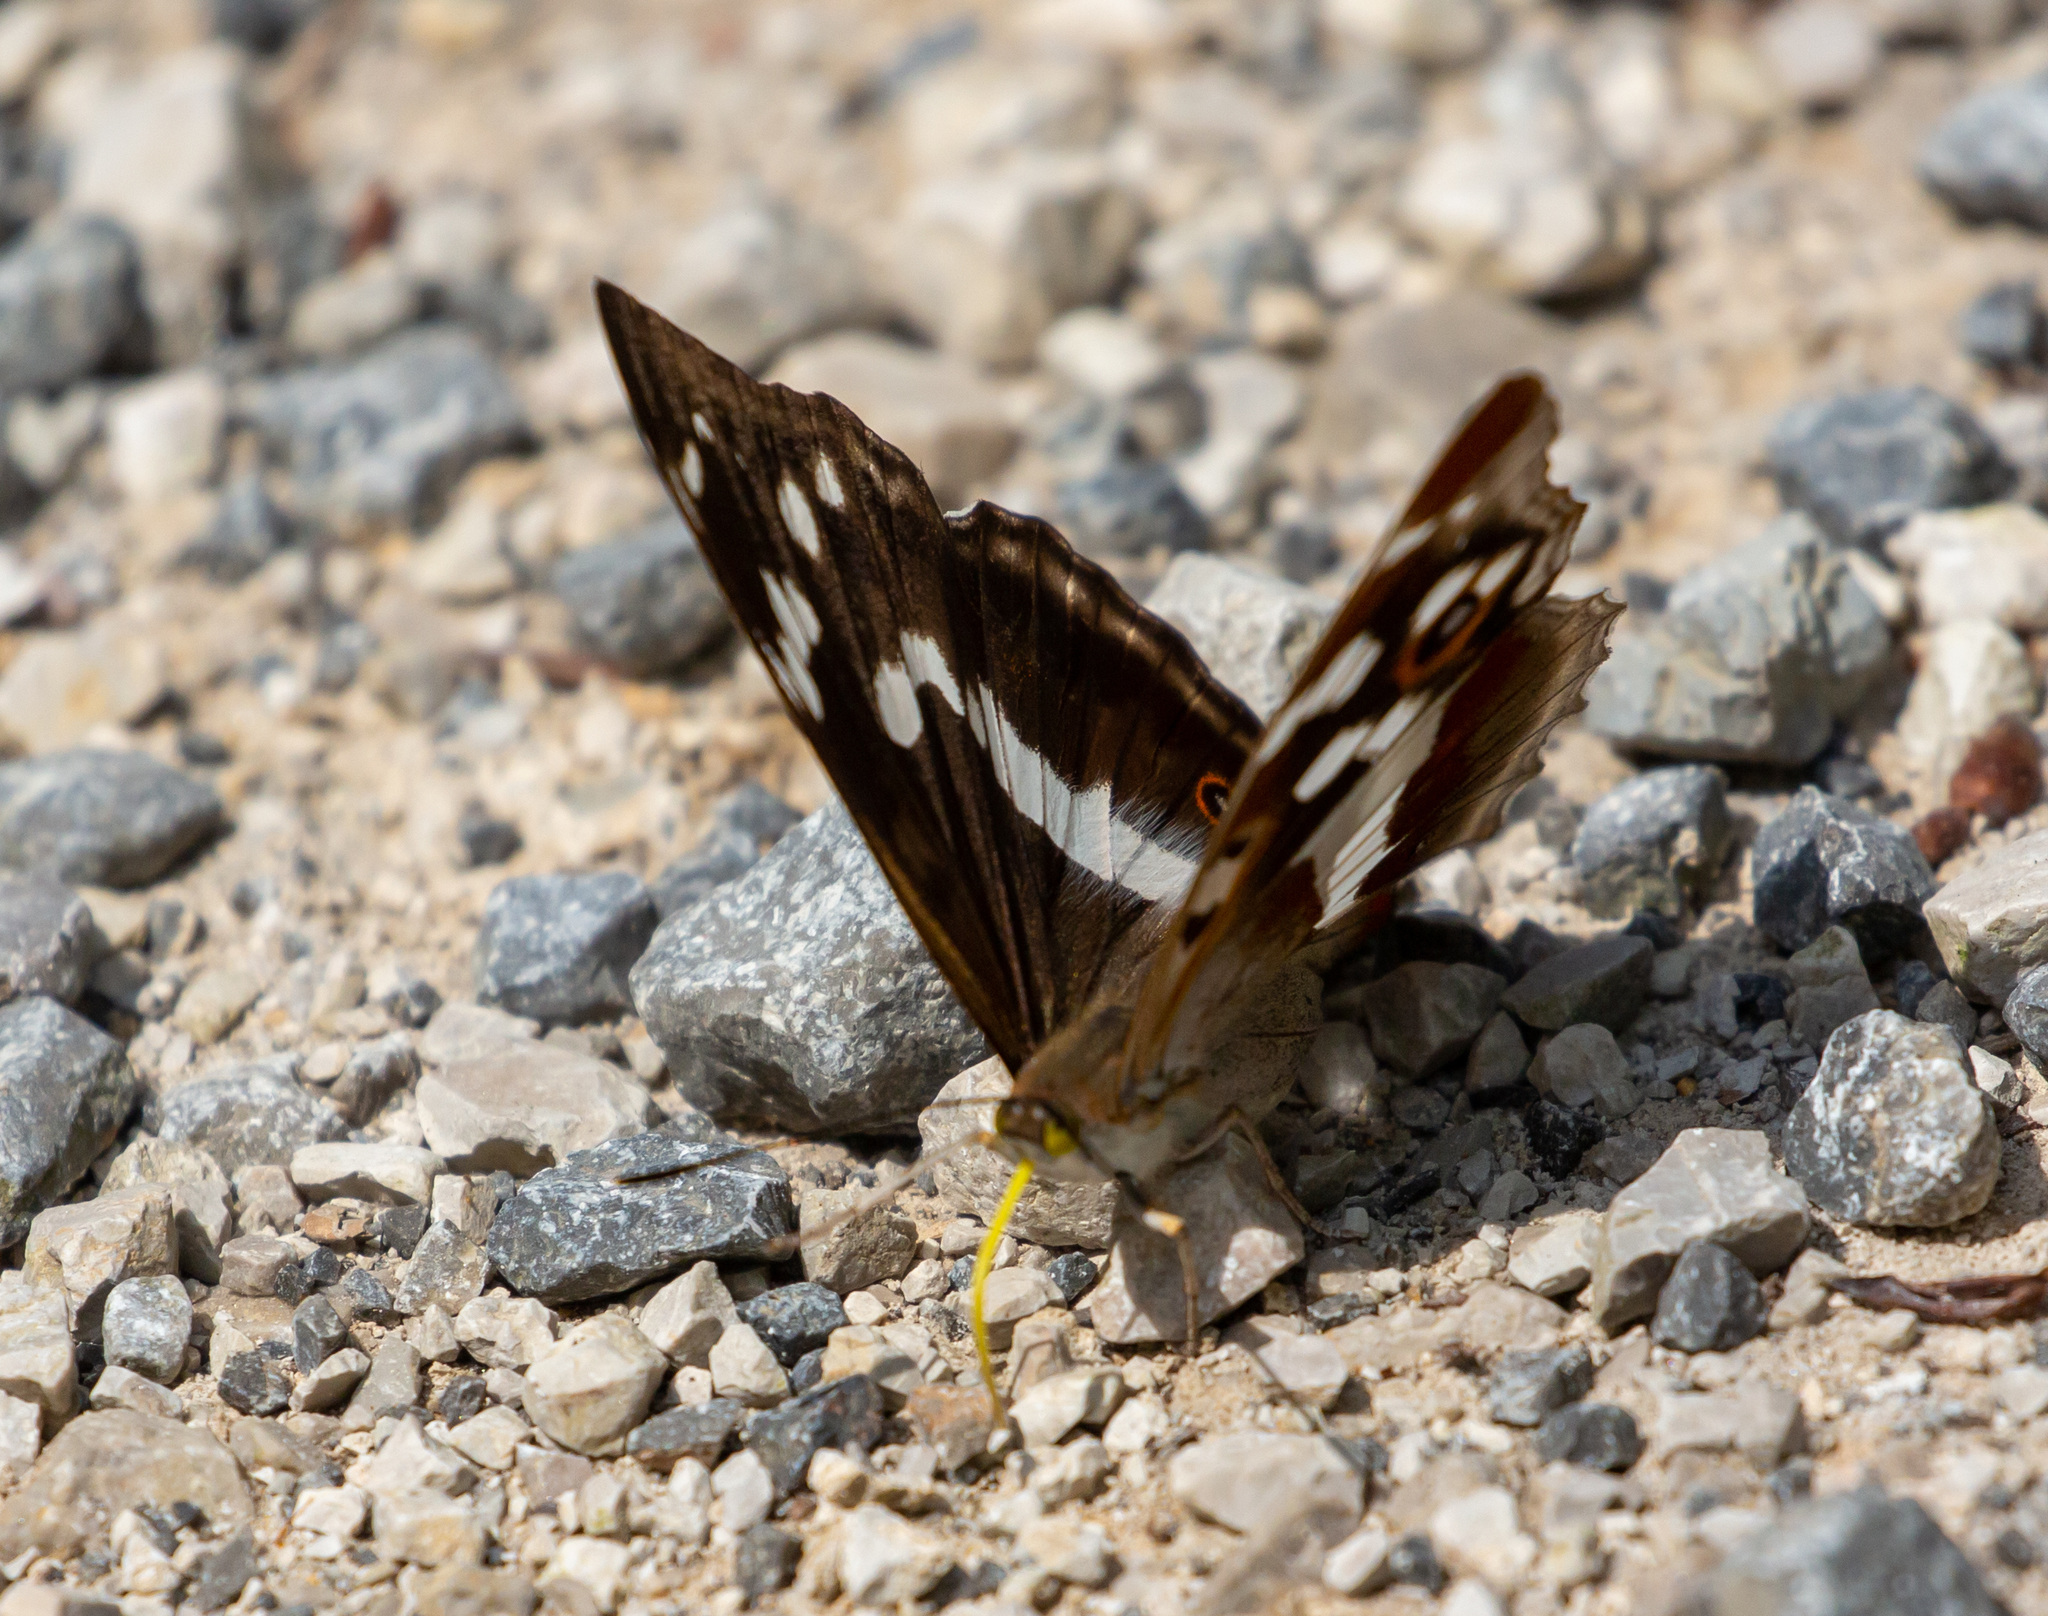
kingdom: Animalia
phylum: Arthropoda
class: Insecta
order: Lepidoptera
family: Nymphalidae
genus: Apatura
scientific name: Apatura iris
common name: Purple emperor
